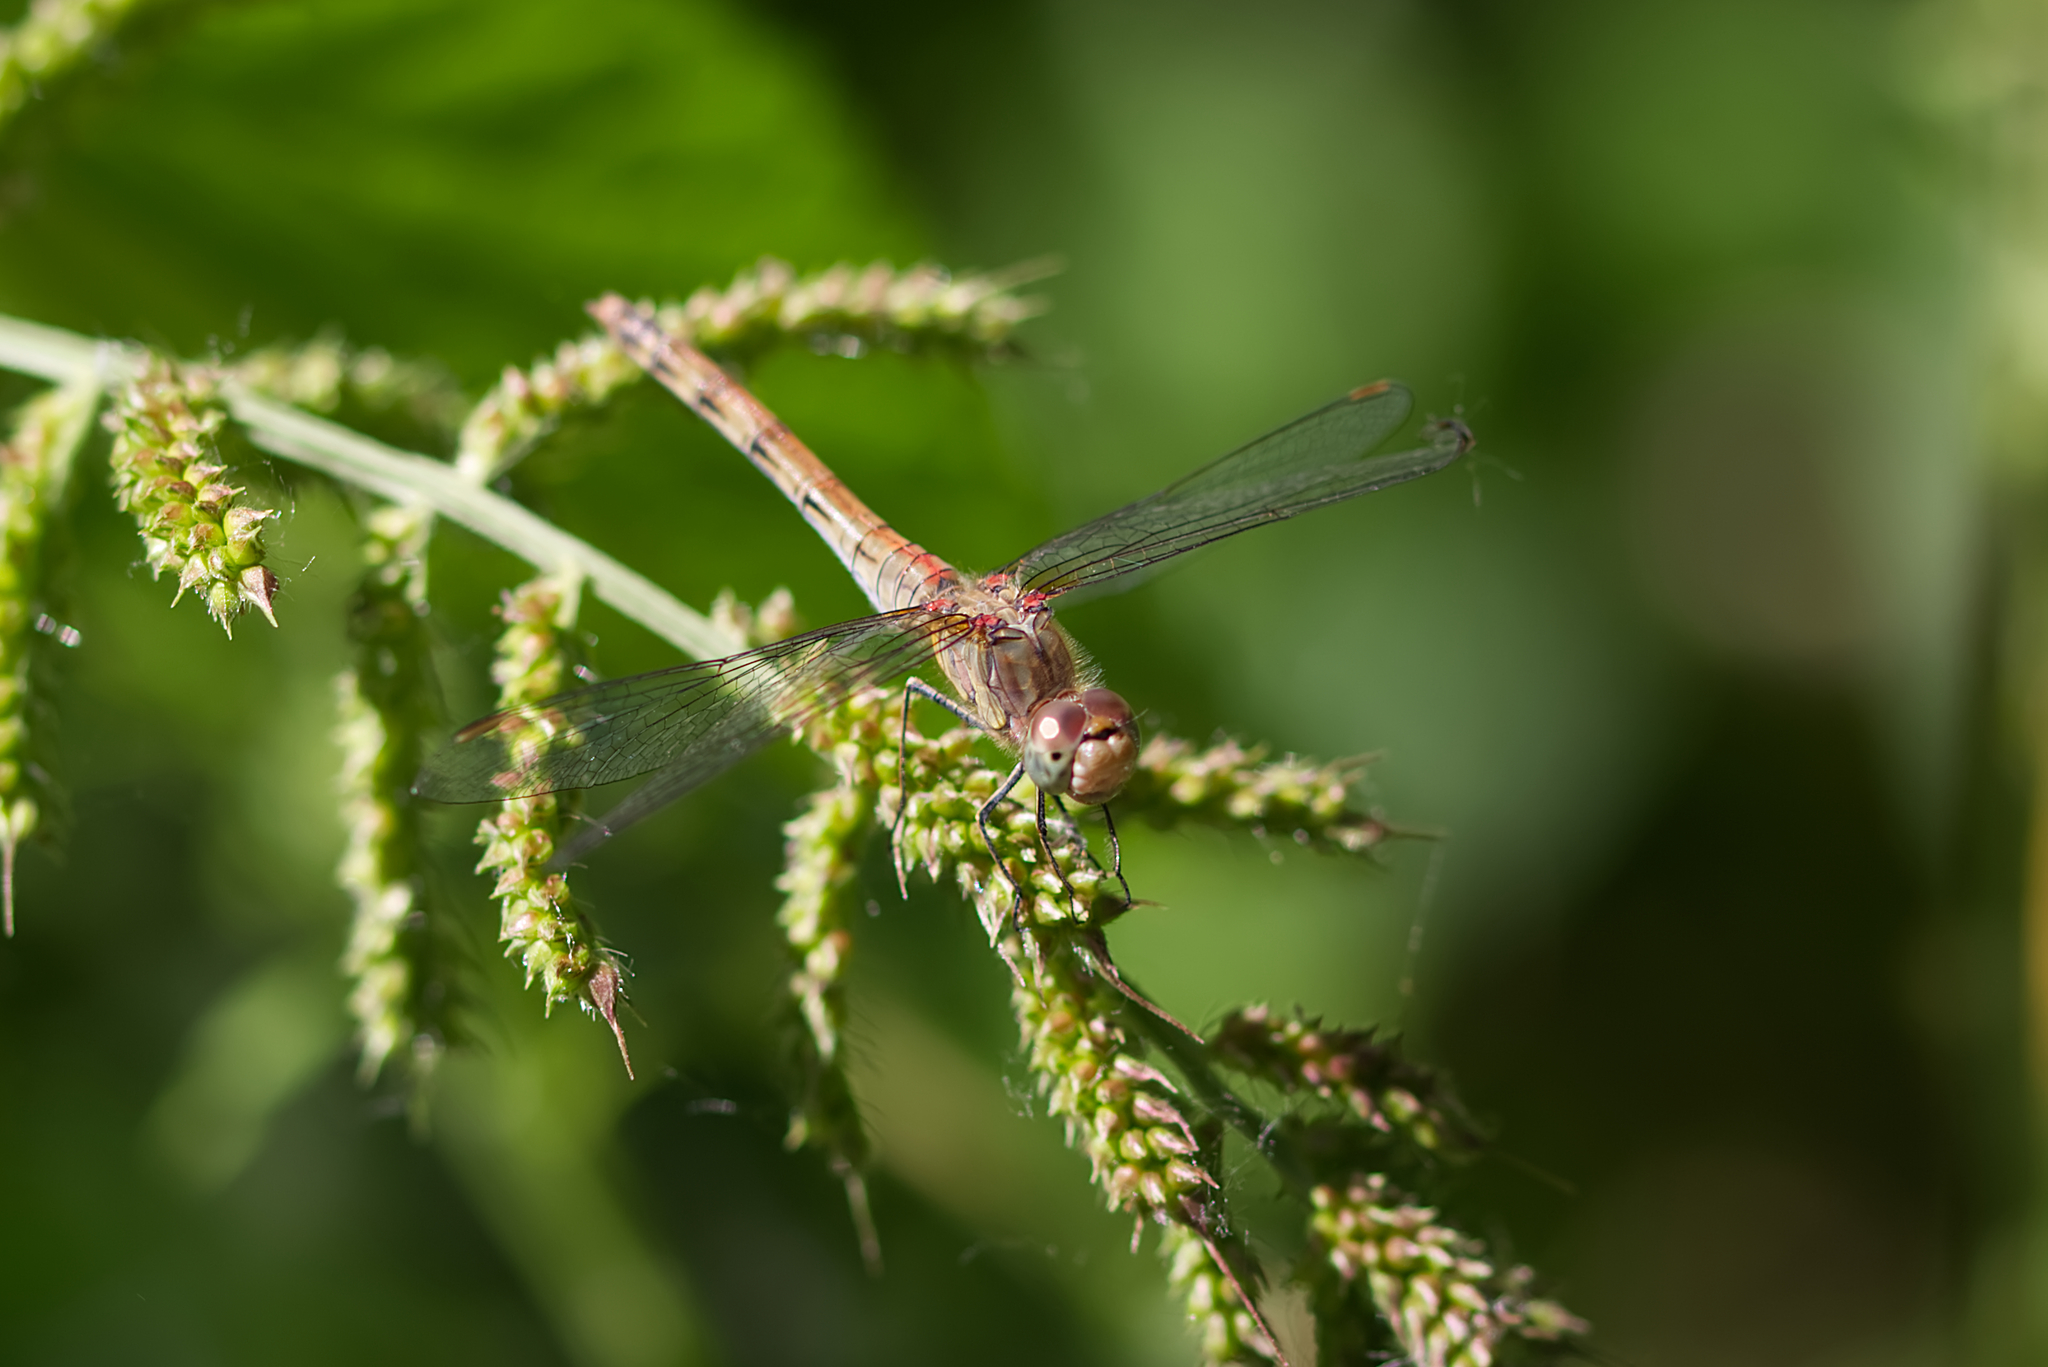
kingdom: Animalia
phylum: Arthropoda
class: Insecta
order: Odonata
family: Libellulidae
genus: Sympetrum
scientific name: Sympetrum striolatum
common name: Common darter
